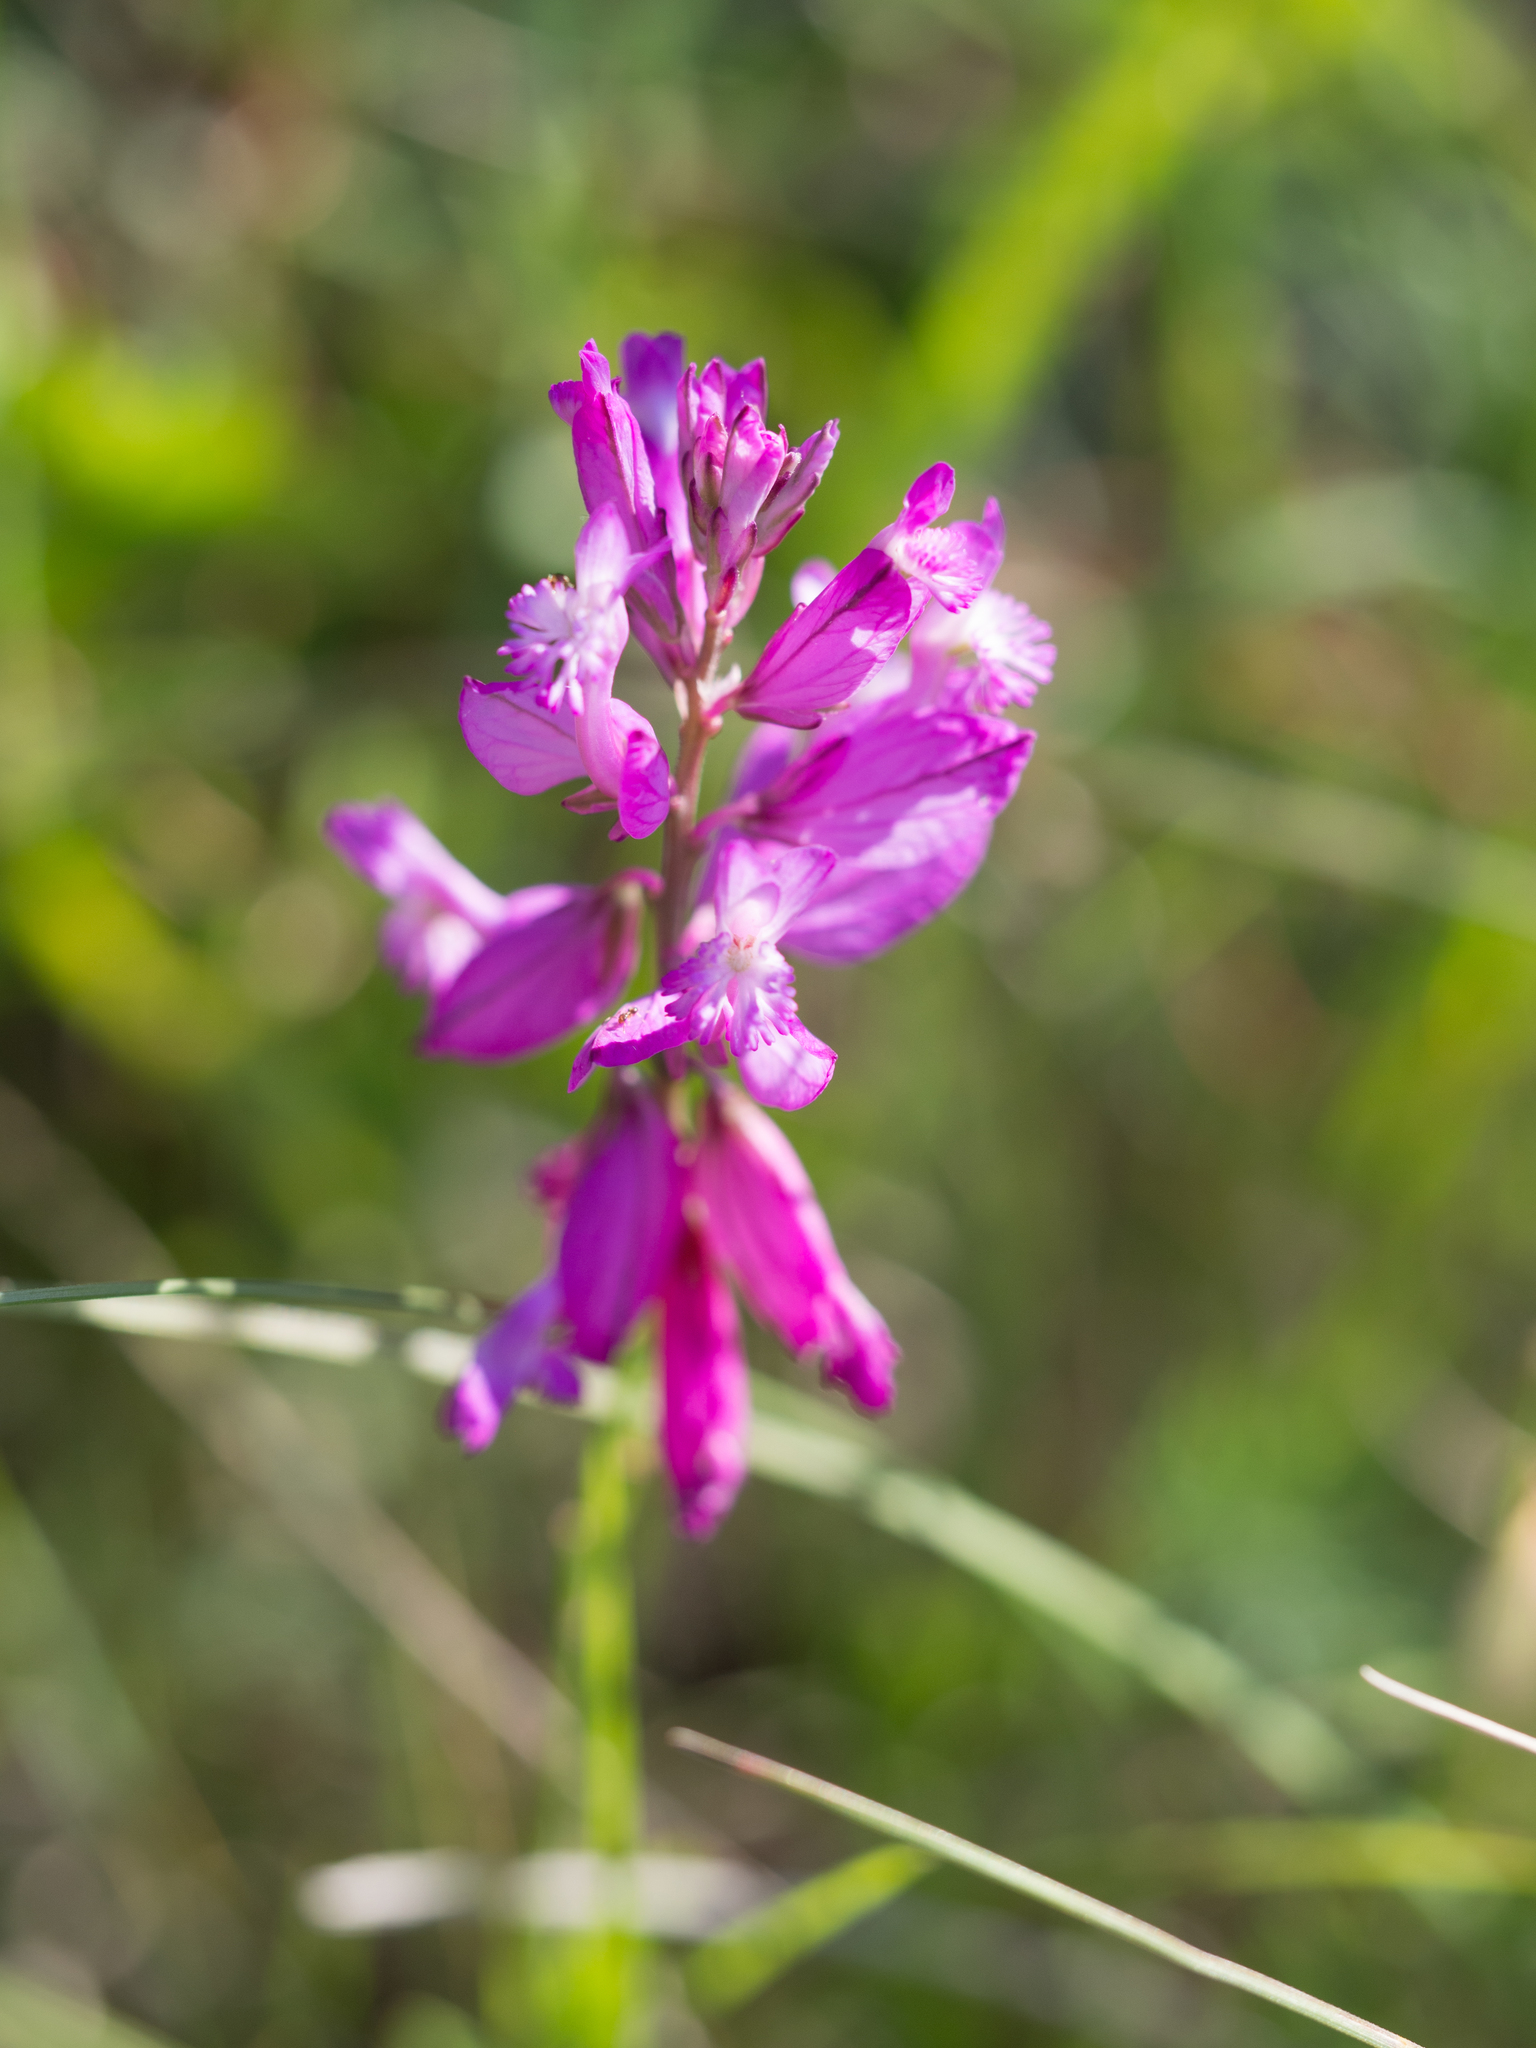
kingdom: Plantae
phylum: Tracheophyta
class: Magnoliopsida
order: Fabales
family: Polygalaceae
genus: Polygala
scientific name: Polygala major
